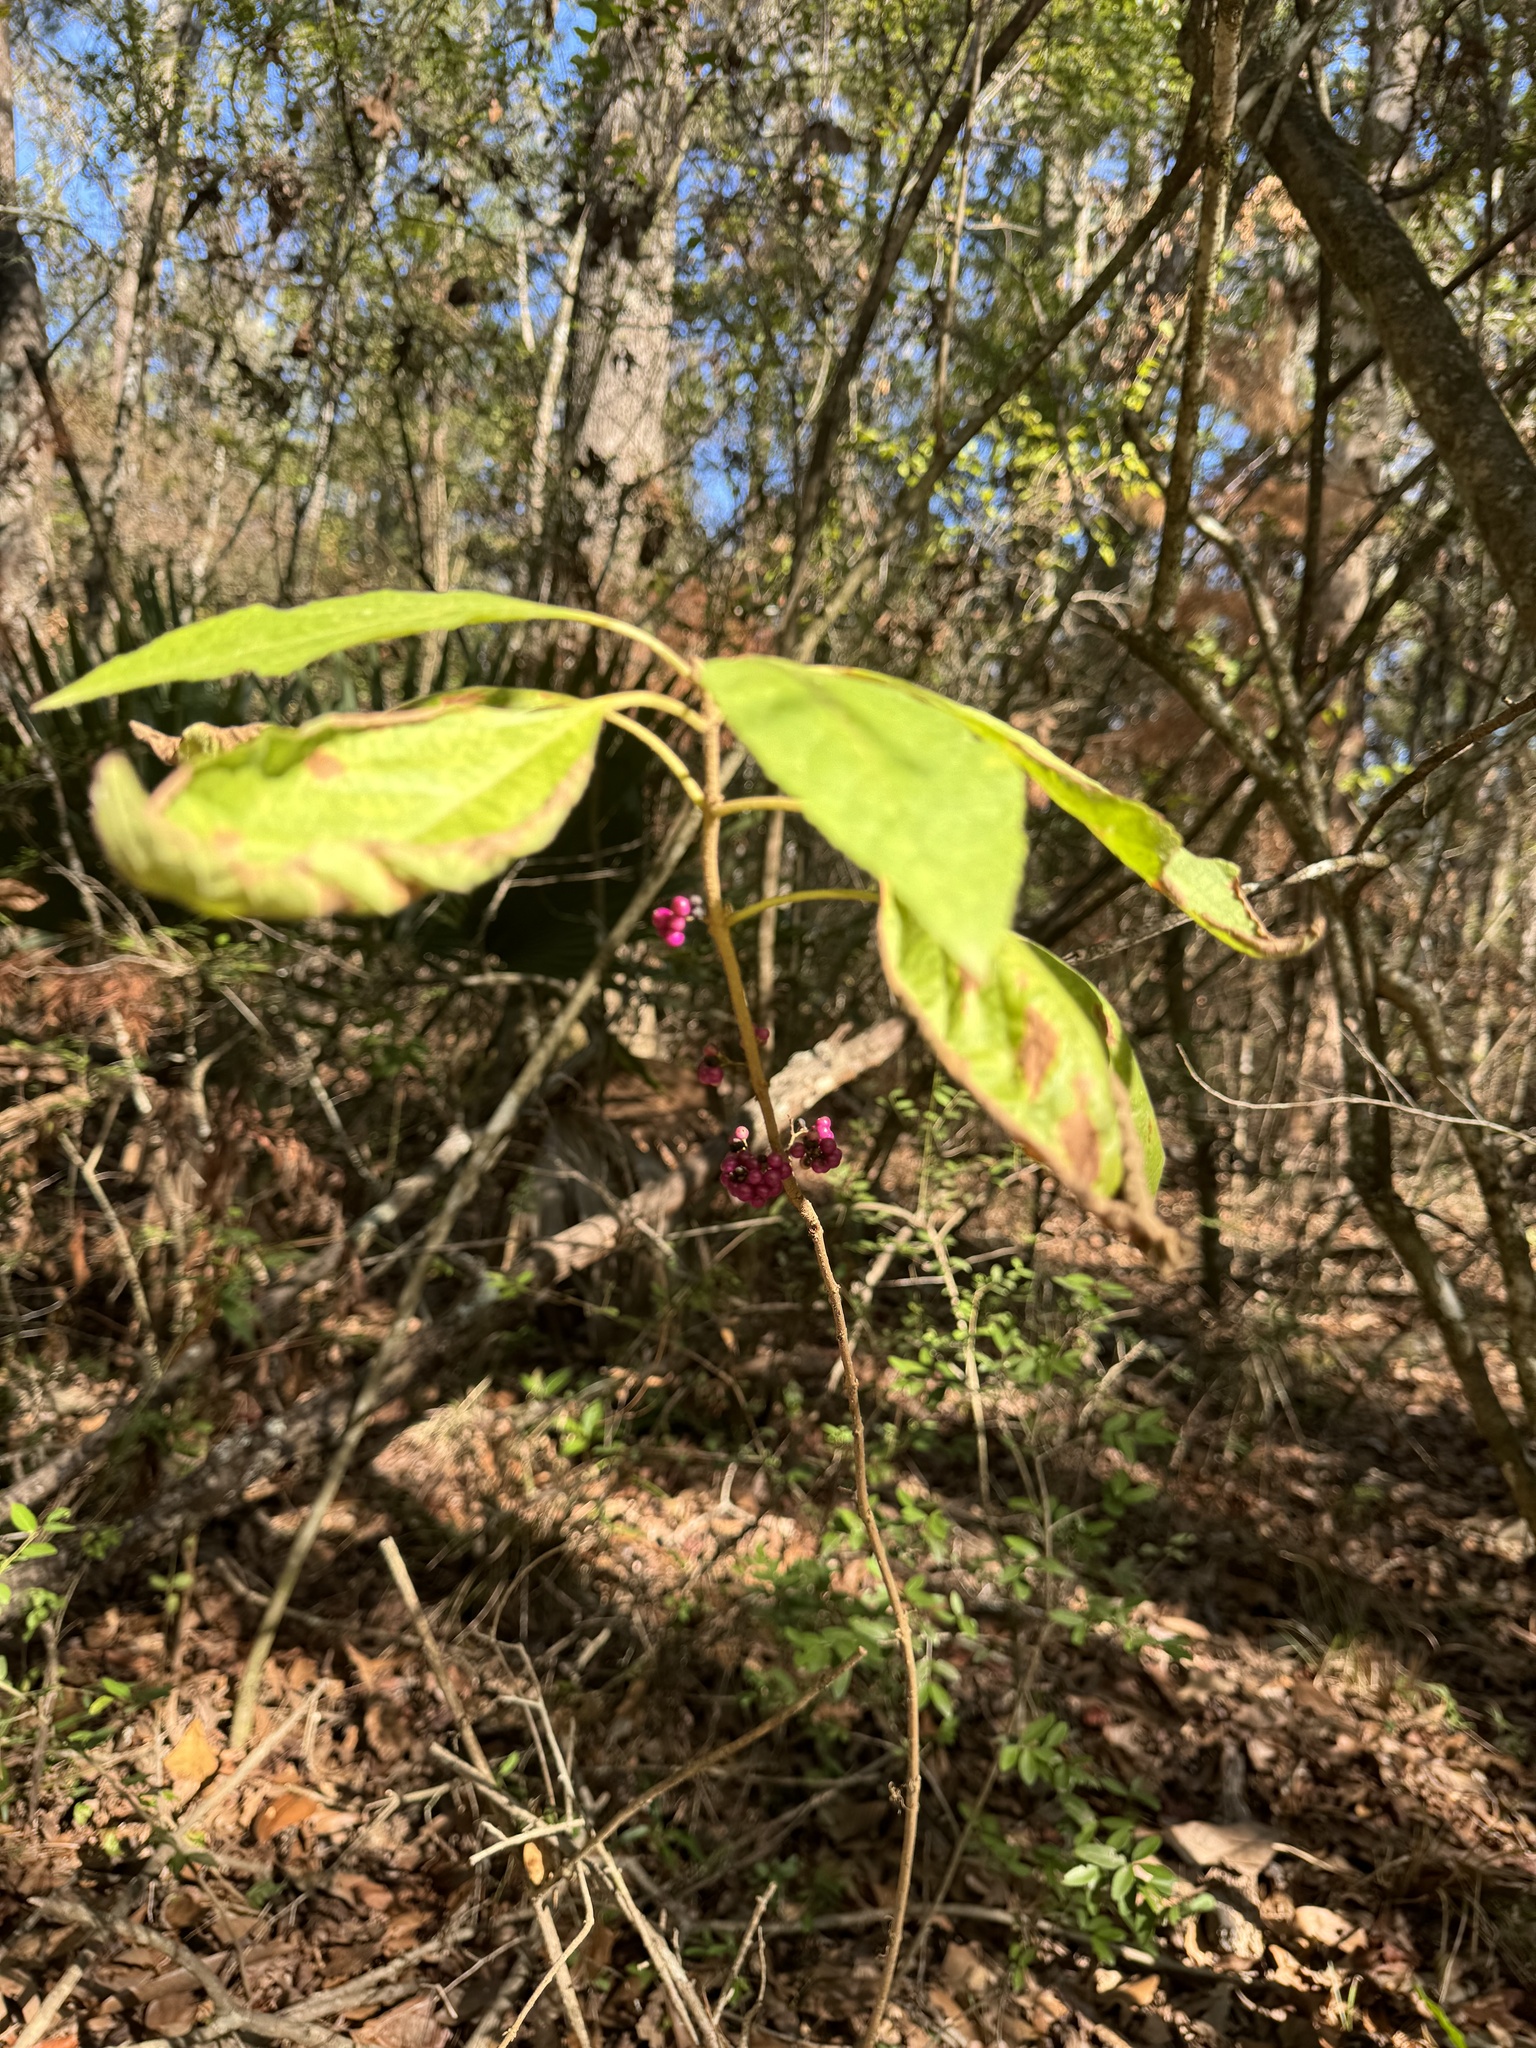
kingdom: Plantae
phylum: Tracheophyta
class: Magnoliopsida
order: Lamiales
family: Lamiaceae
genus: Callicarpa
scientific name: Callicarpa americana
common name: American beautyberry
